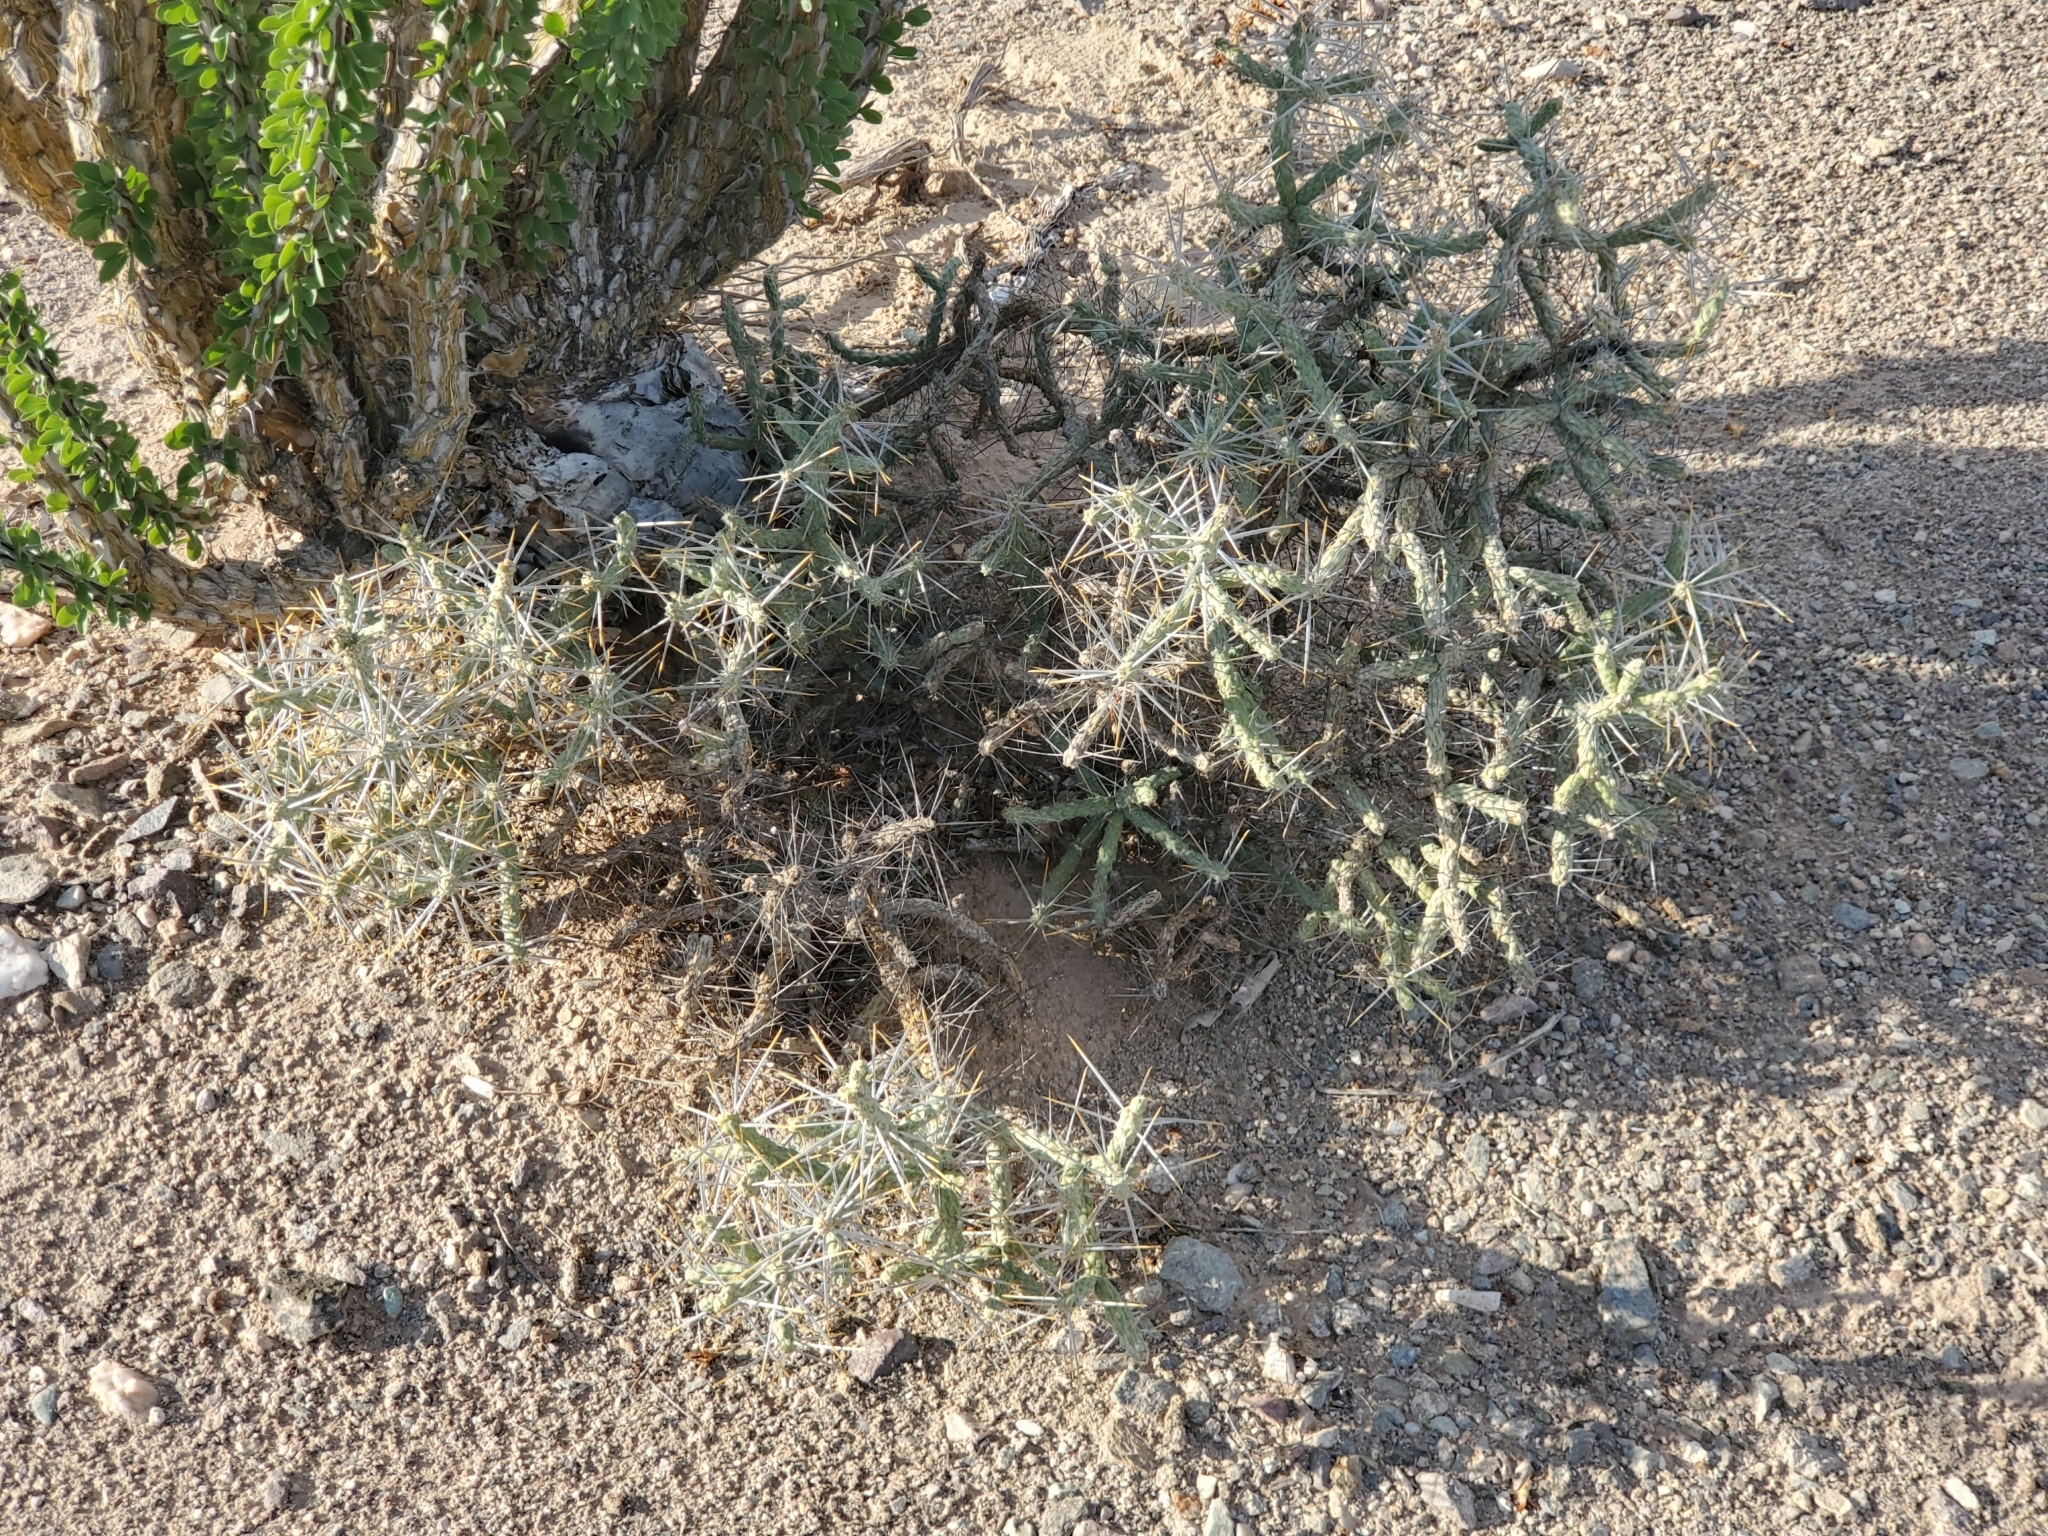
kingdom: Plantae
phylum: Tracheophyta
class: Magnoliopsida
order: Caryophyllales
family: Cactaceae
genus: Cylindropuntia
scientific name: Cylindropuntia ramosissima
